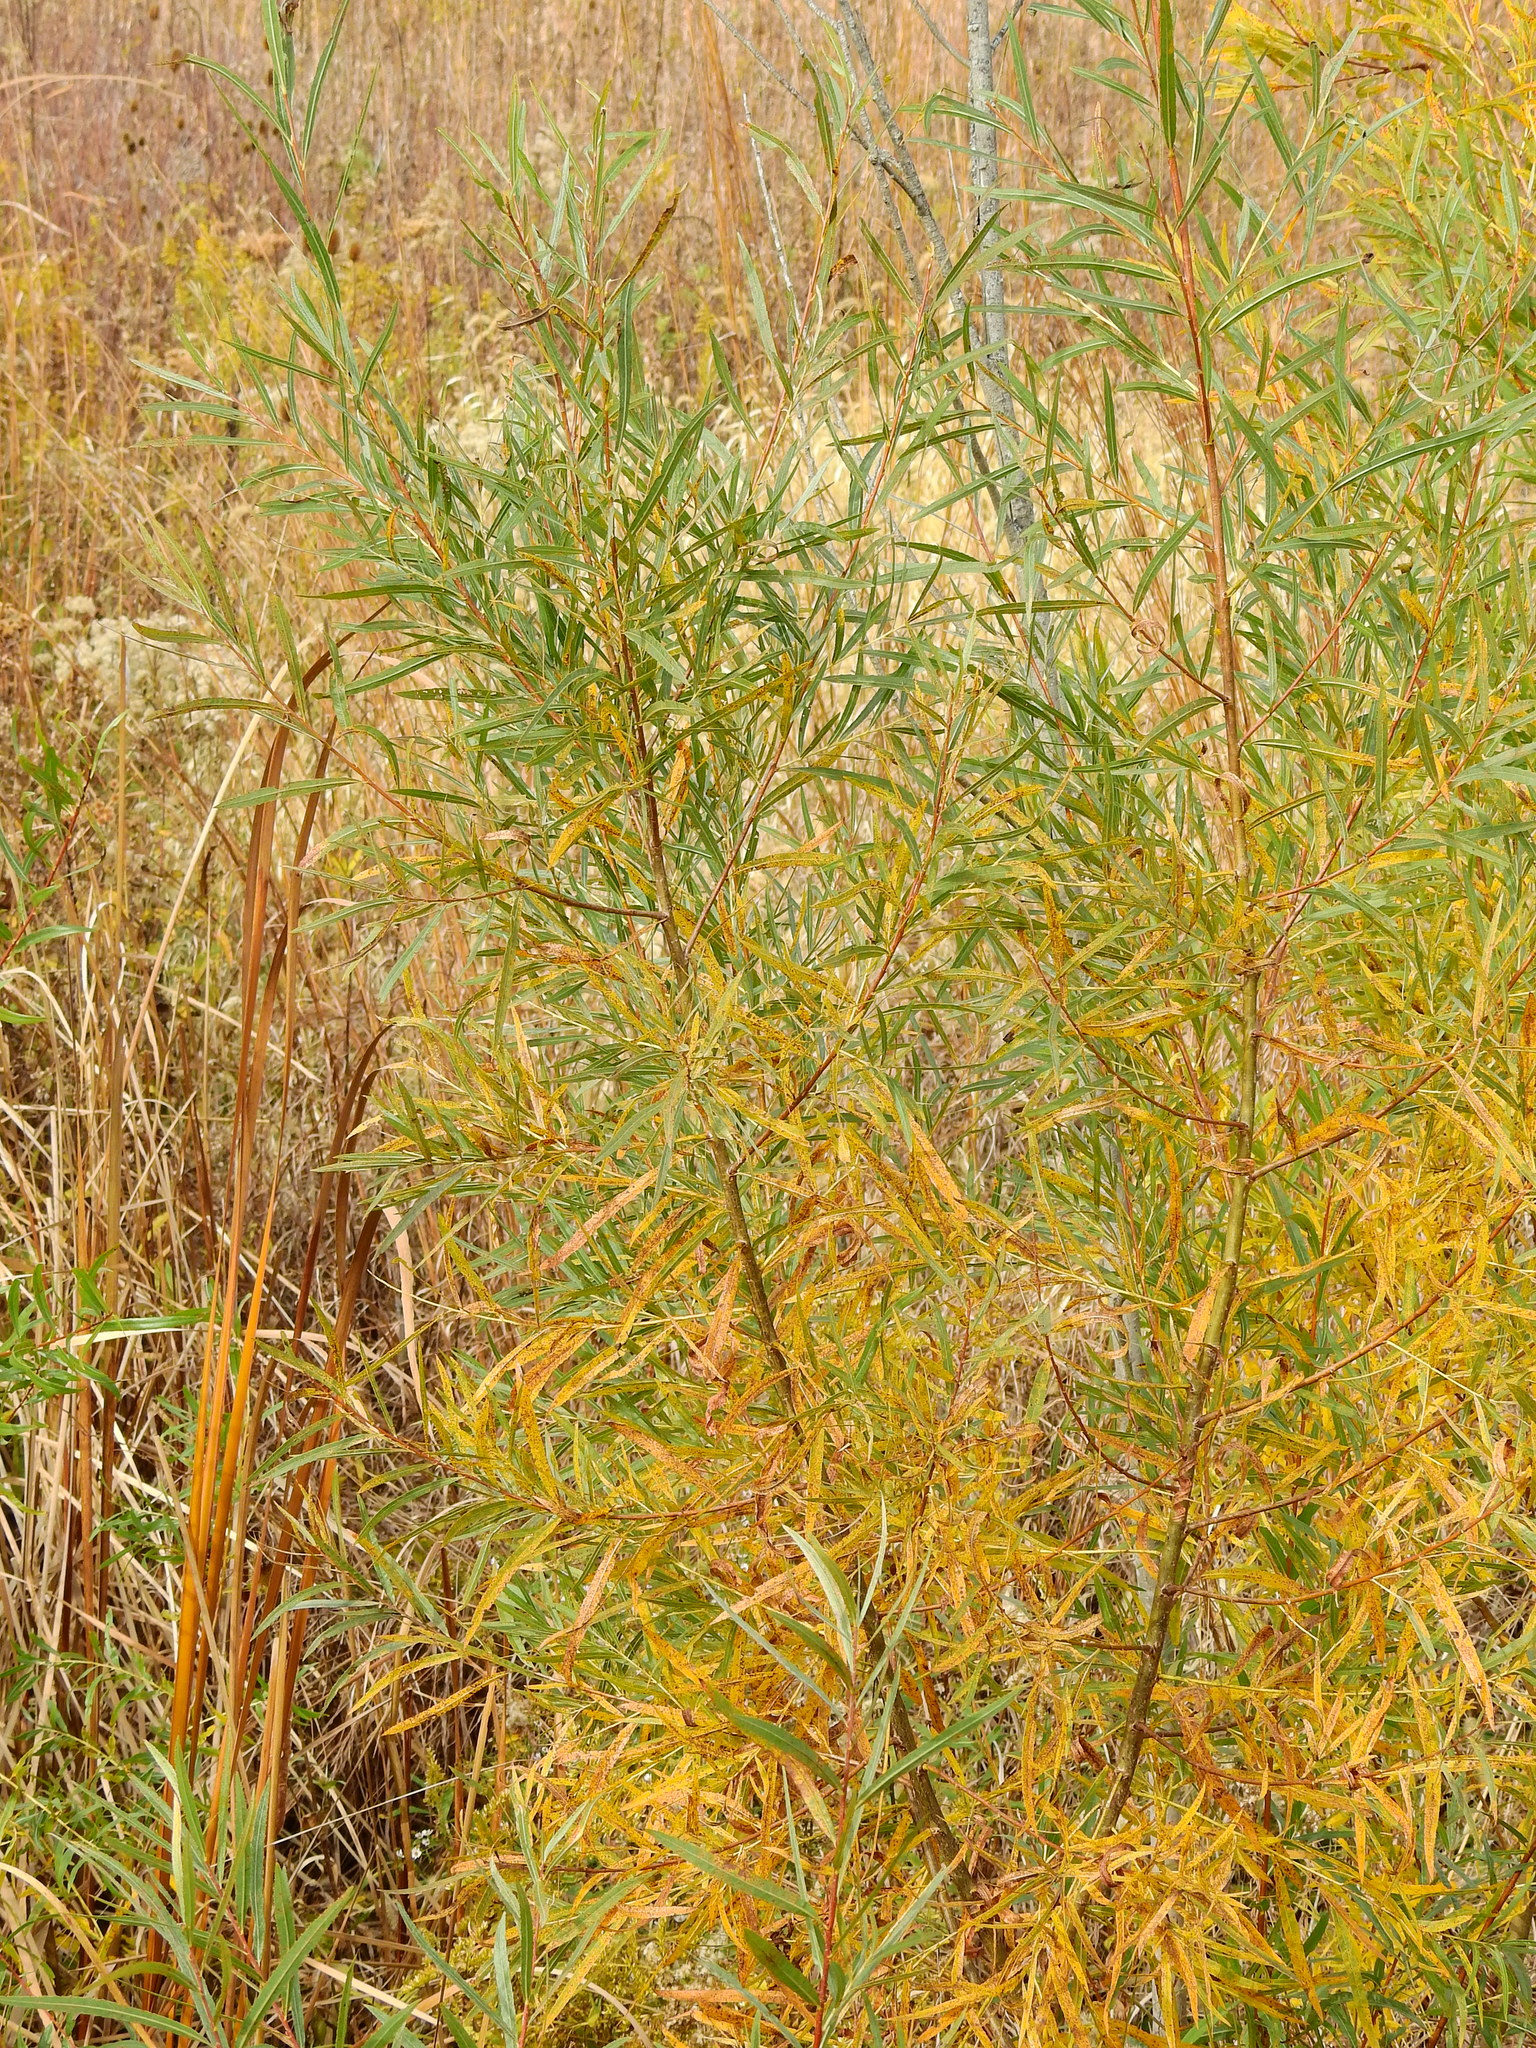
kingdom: Plantae
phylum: Tracheophyta
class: Magnoliopsida
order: Malpighiales
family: Salicaceae
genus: Salix
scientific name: Salix interior
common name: Sandbar willow
